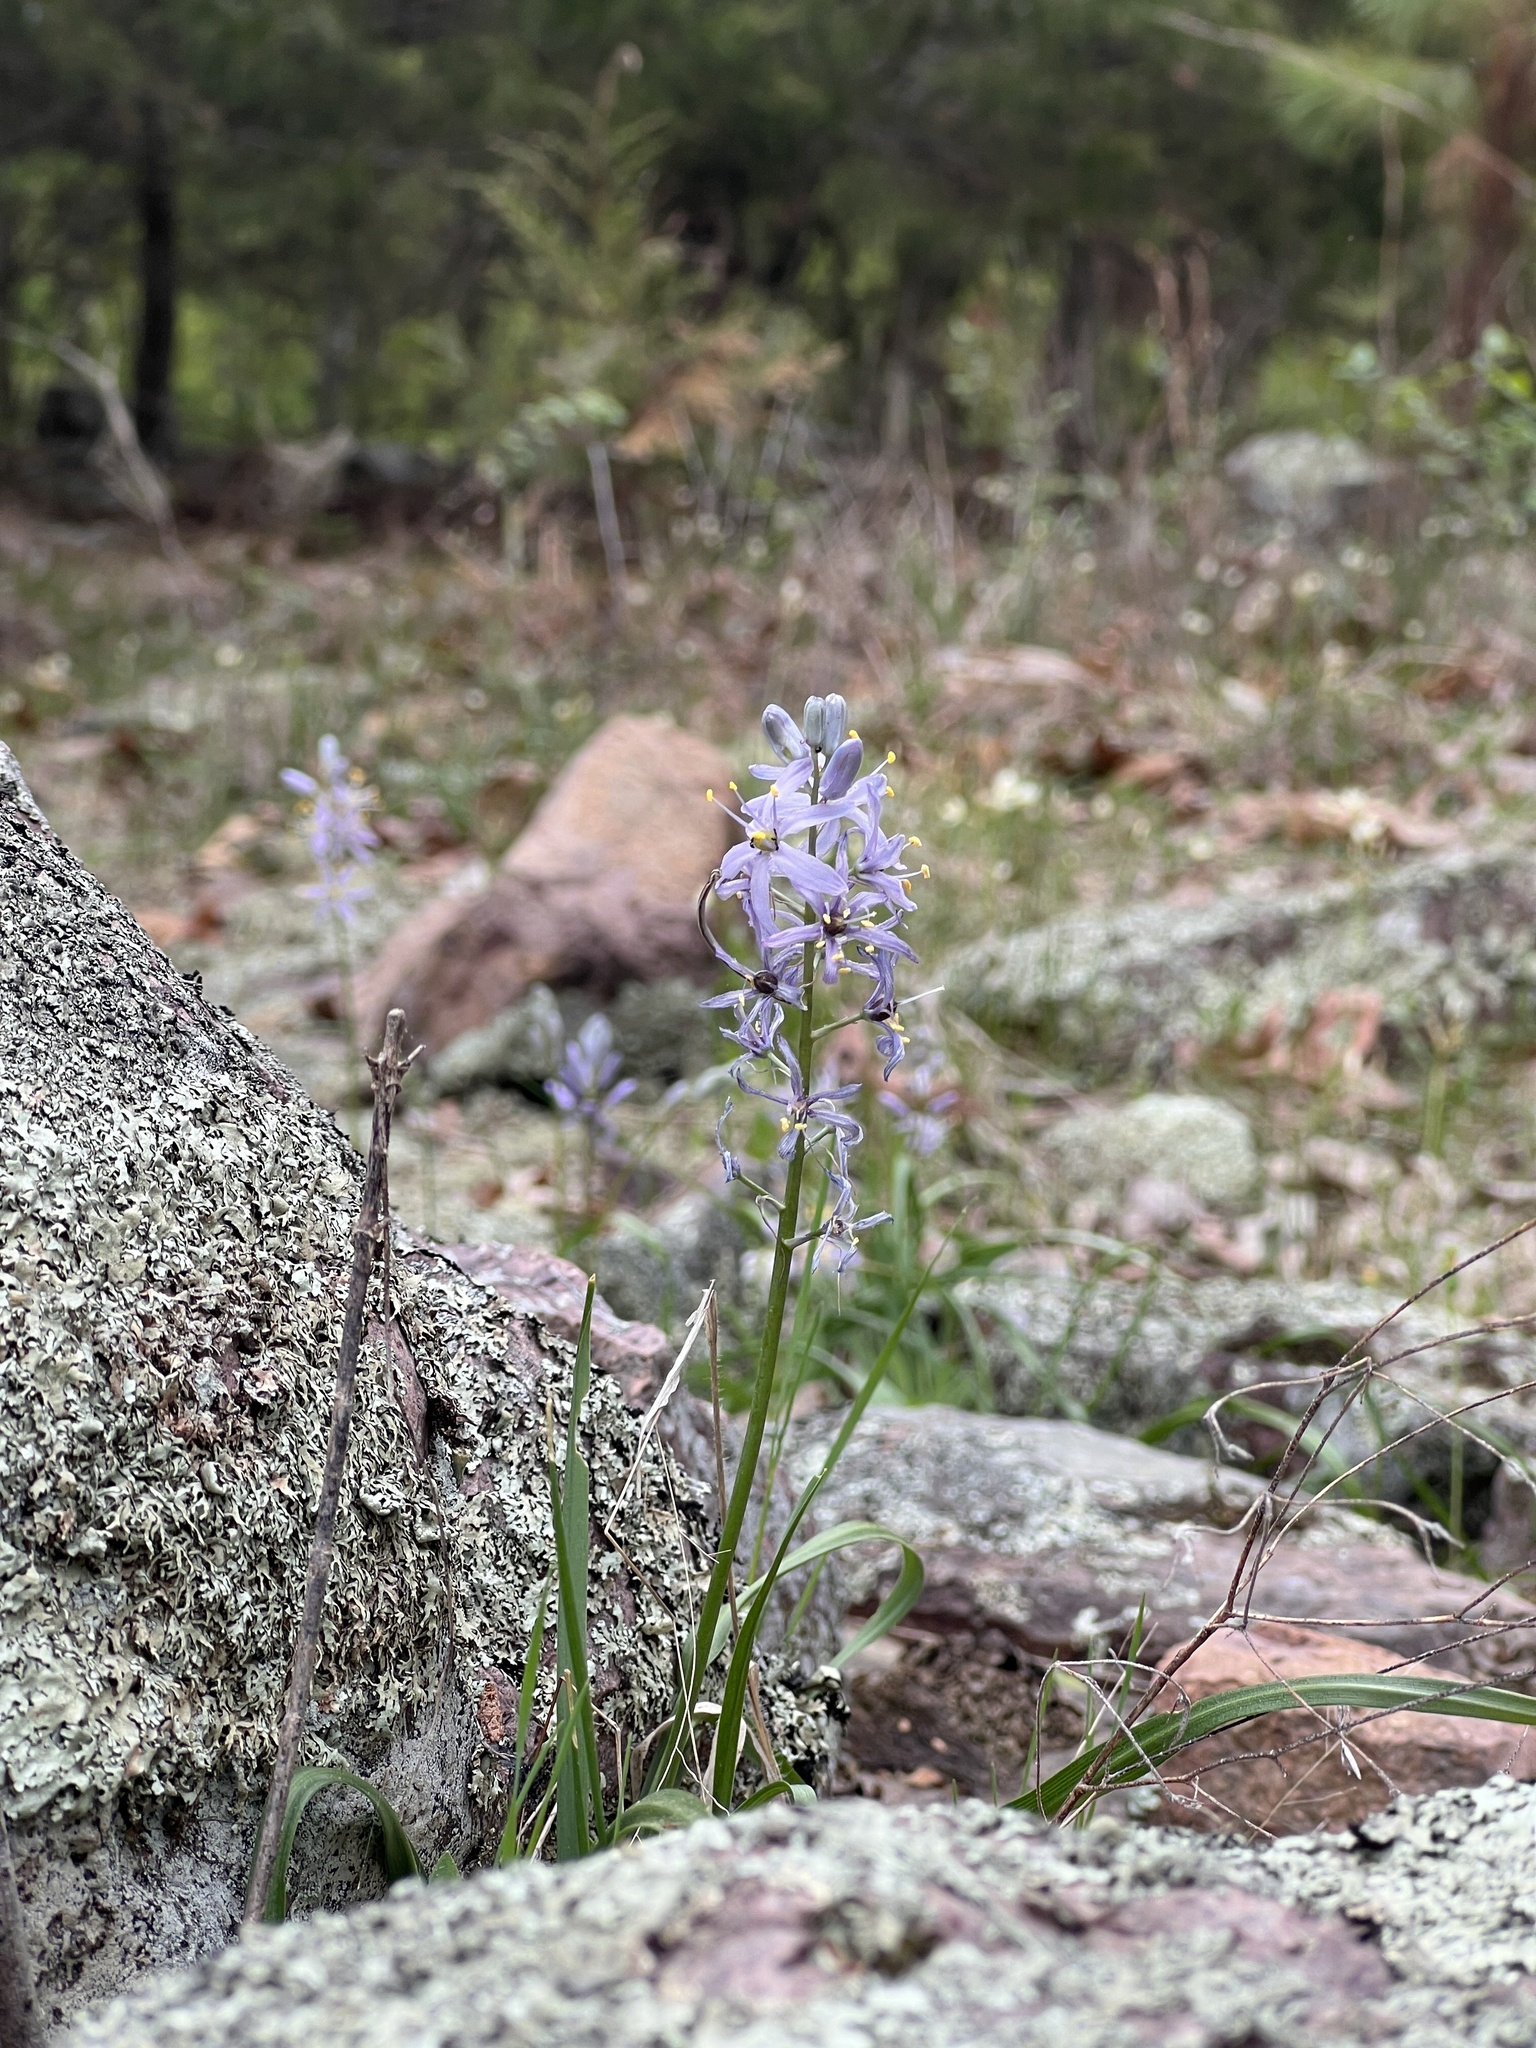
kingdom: Plantae
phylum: Tracheophyta
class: Liliopsida
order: Asparagales
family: Asparagaceae
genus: Camassia
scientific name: Camassia scilloides
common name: Wild hyacinth
